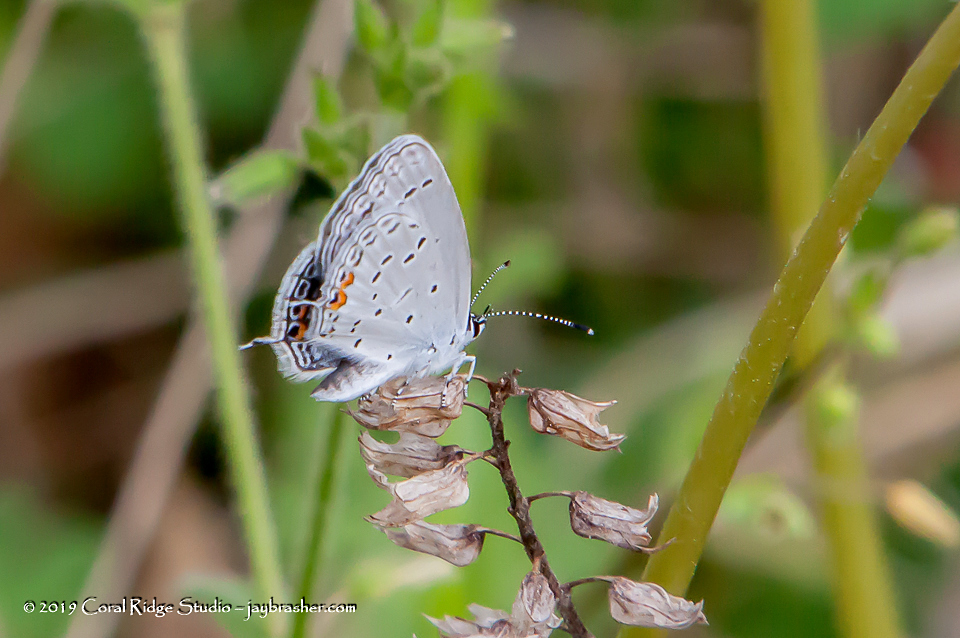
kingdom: Animalia
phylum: Arthropoda
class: Insecta
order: Lepidoptera
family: Lycaenidae
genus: Elkalyce
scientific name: Elkalyce comyntas
